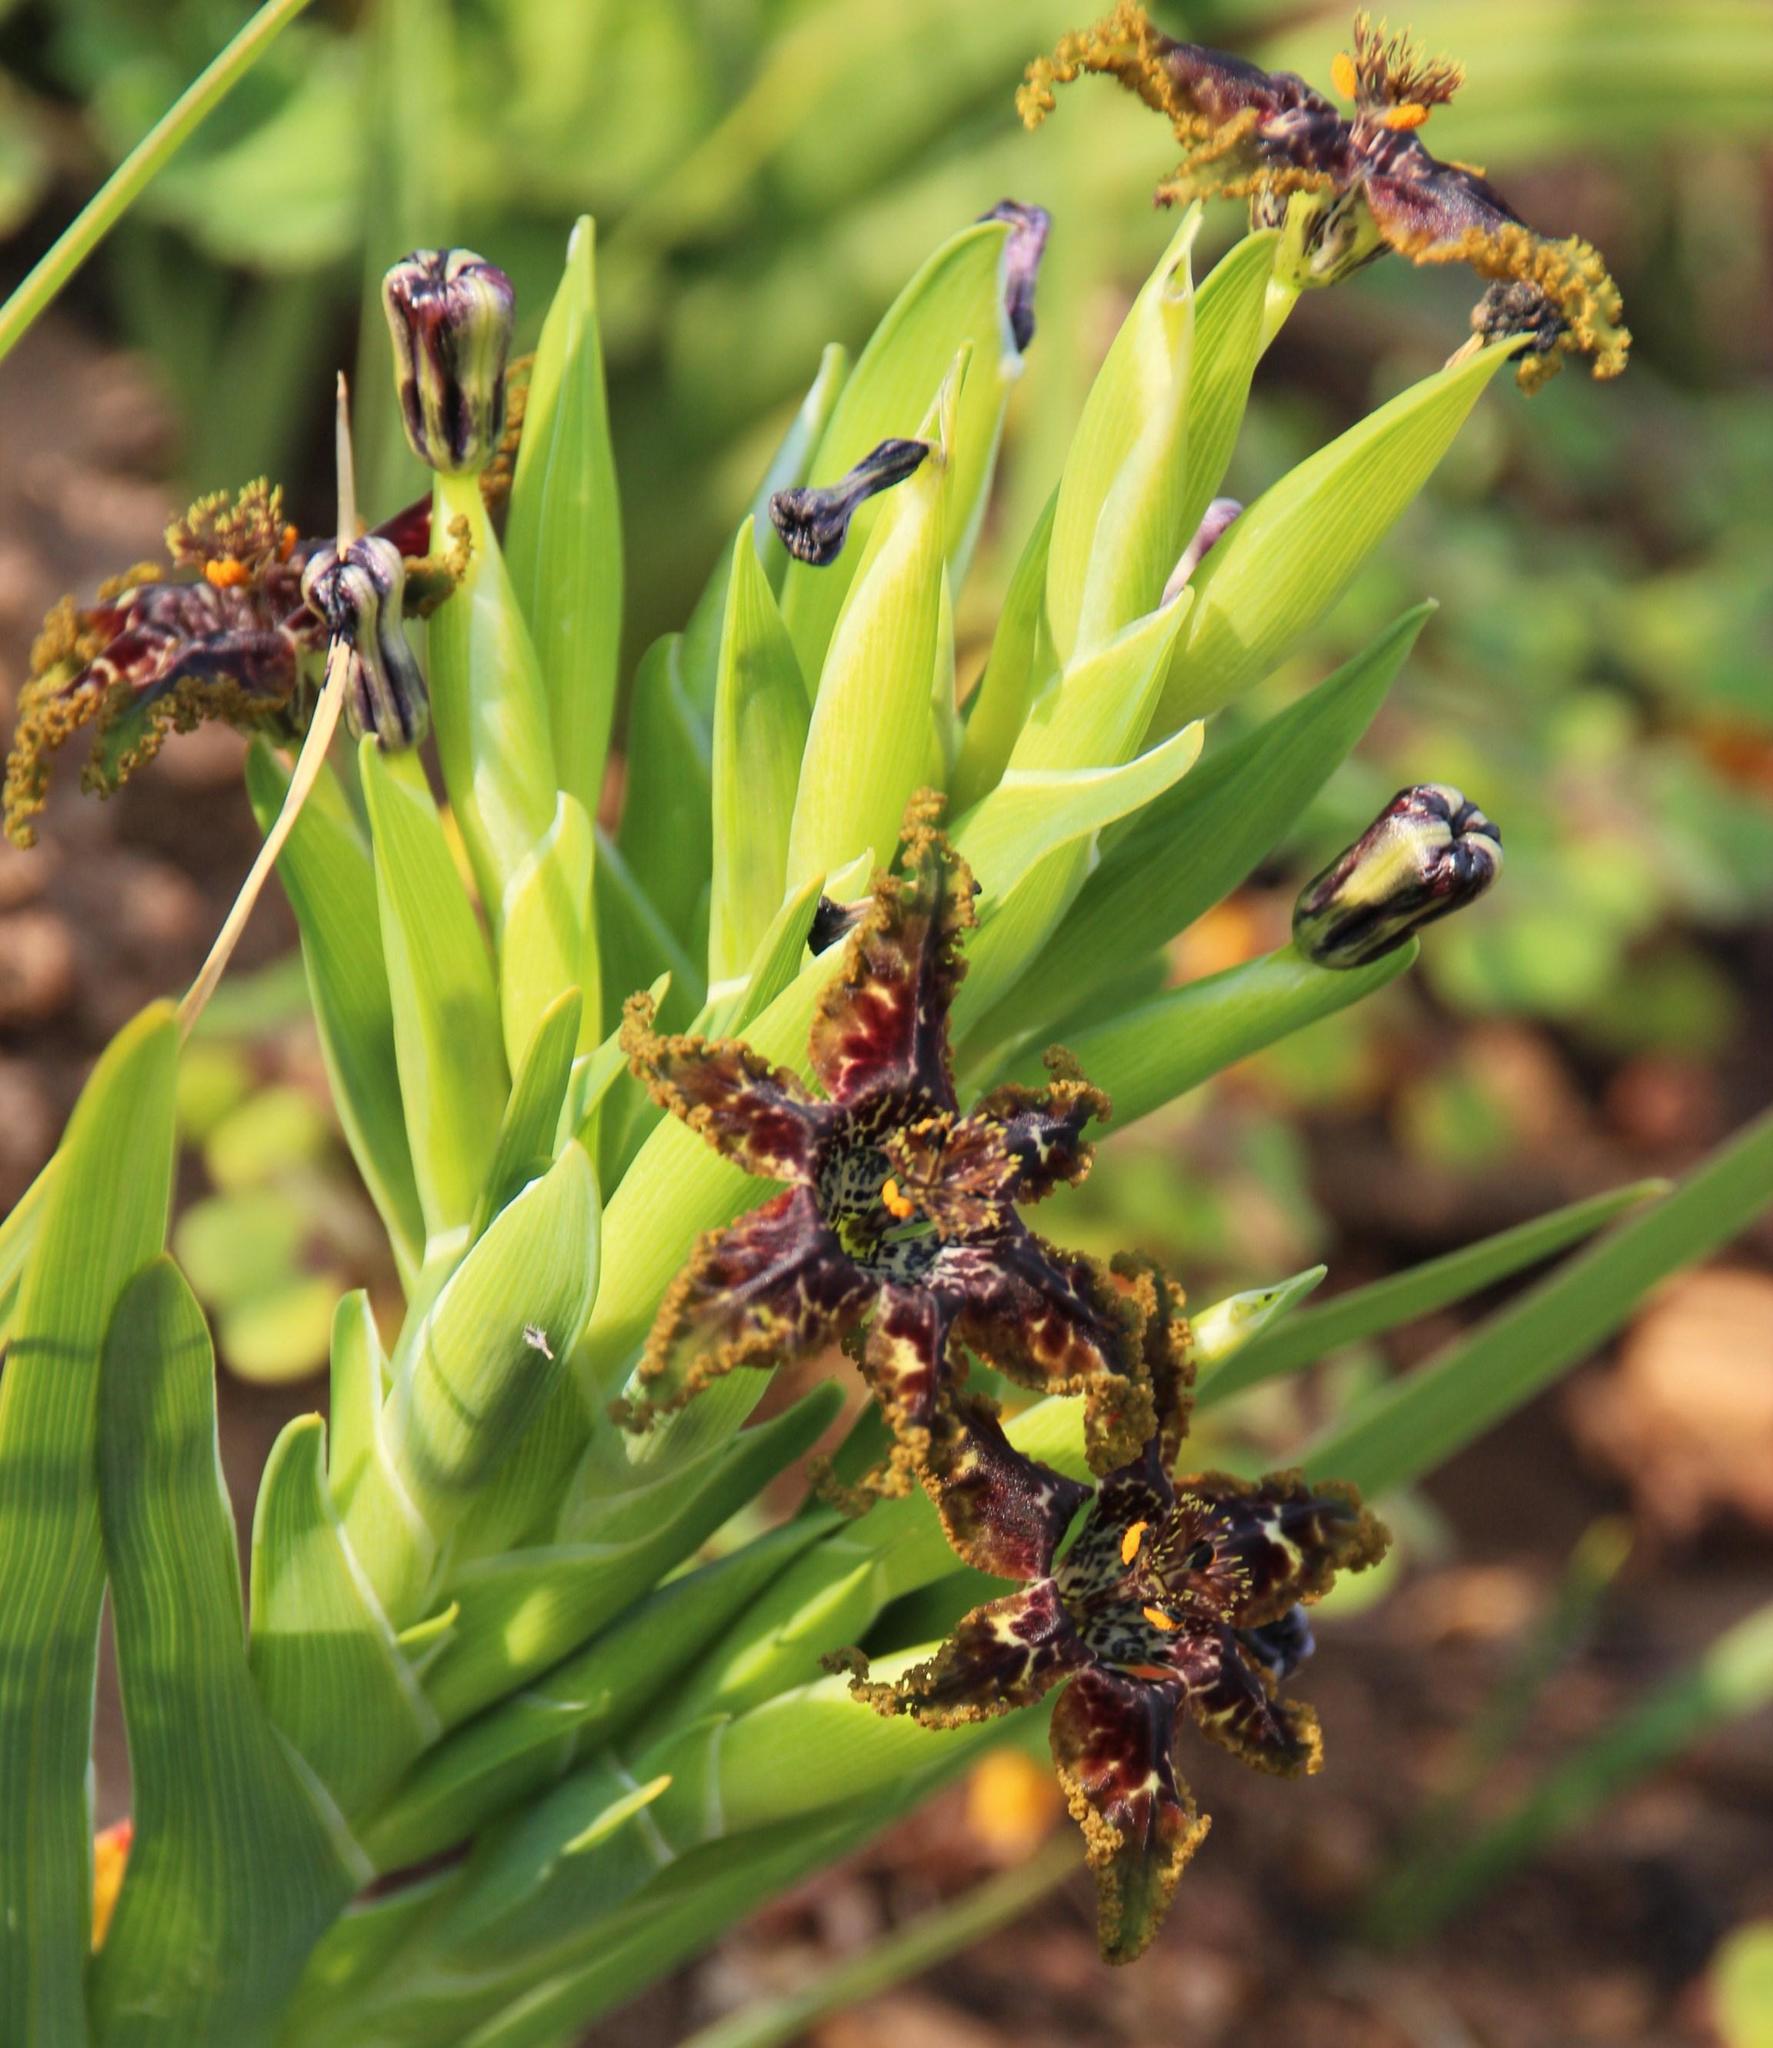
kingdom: Plantae
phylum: Tracheophyta
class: Liliopsida
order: Asparagales
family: Iridaceae
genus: Ferraria
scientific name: Ferraria crispa
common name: Black-flag
